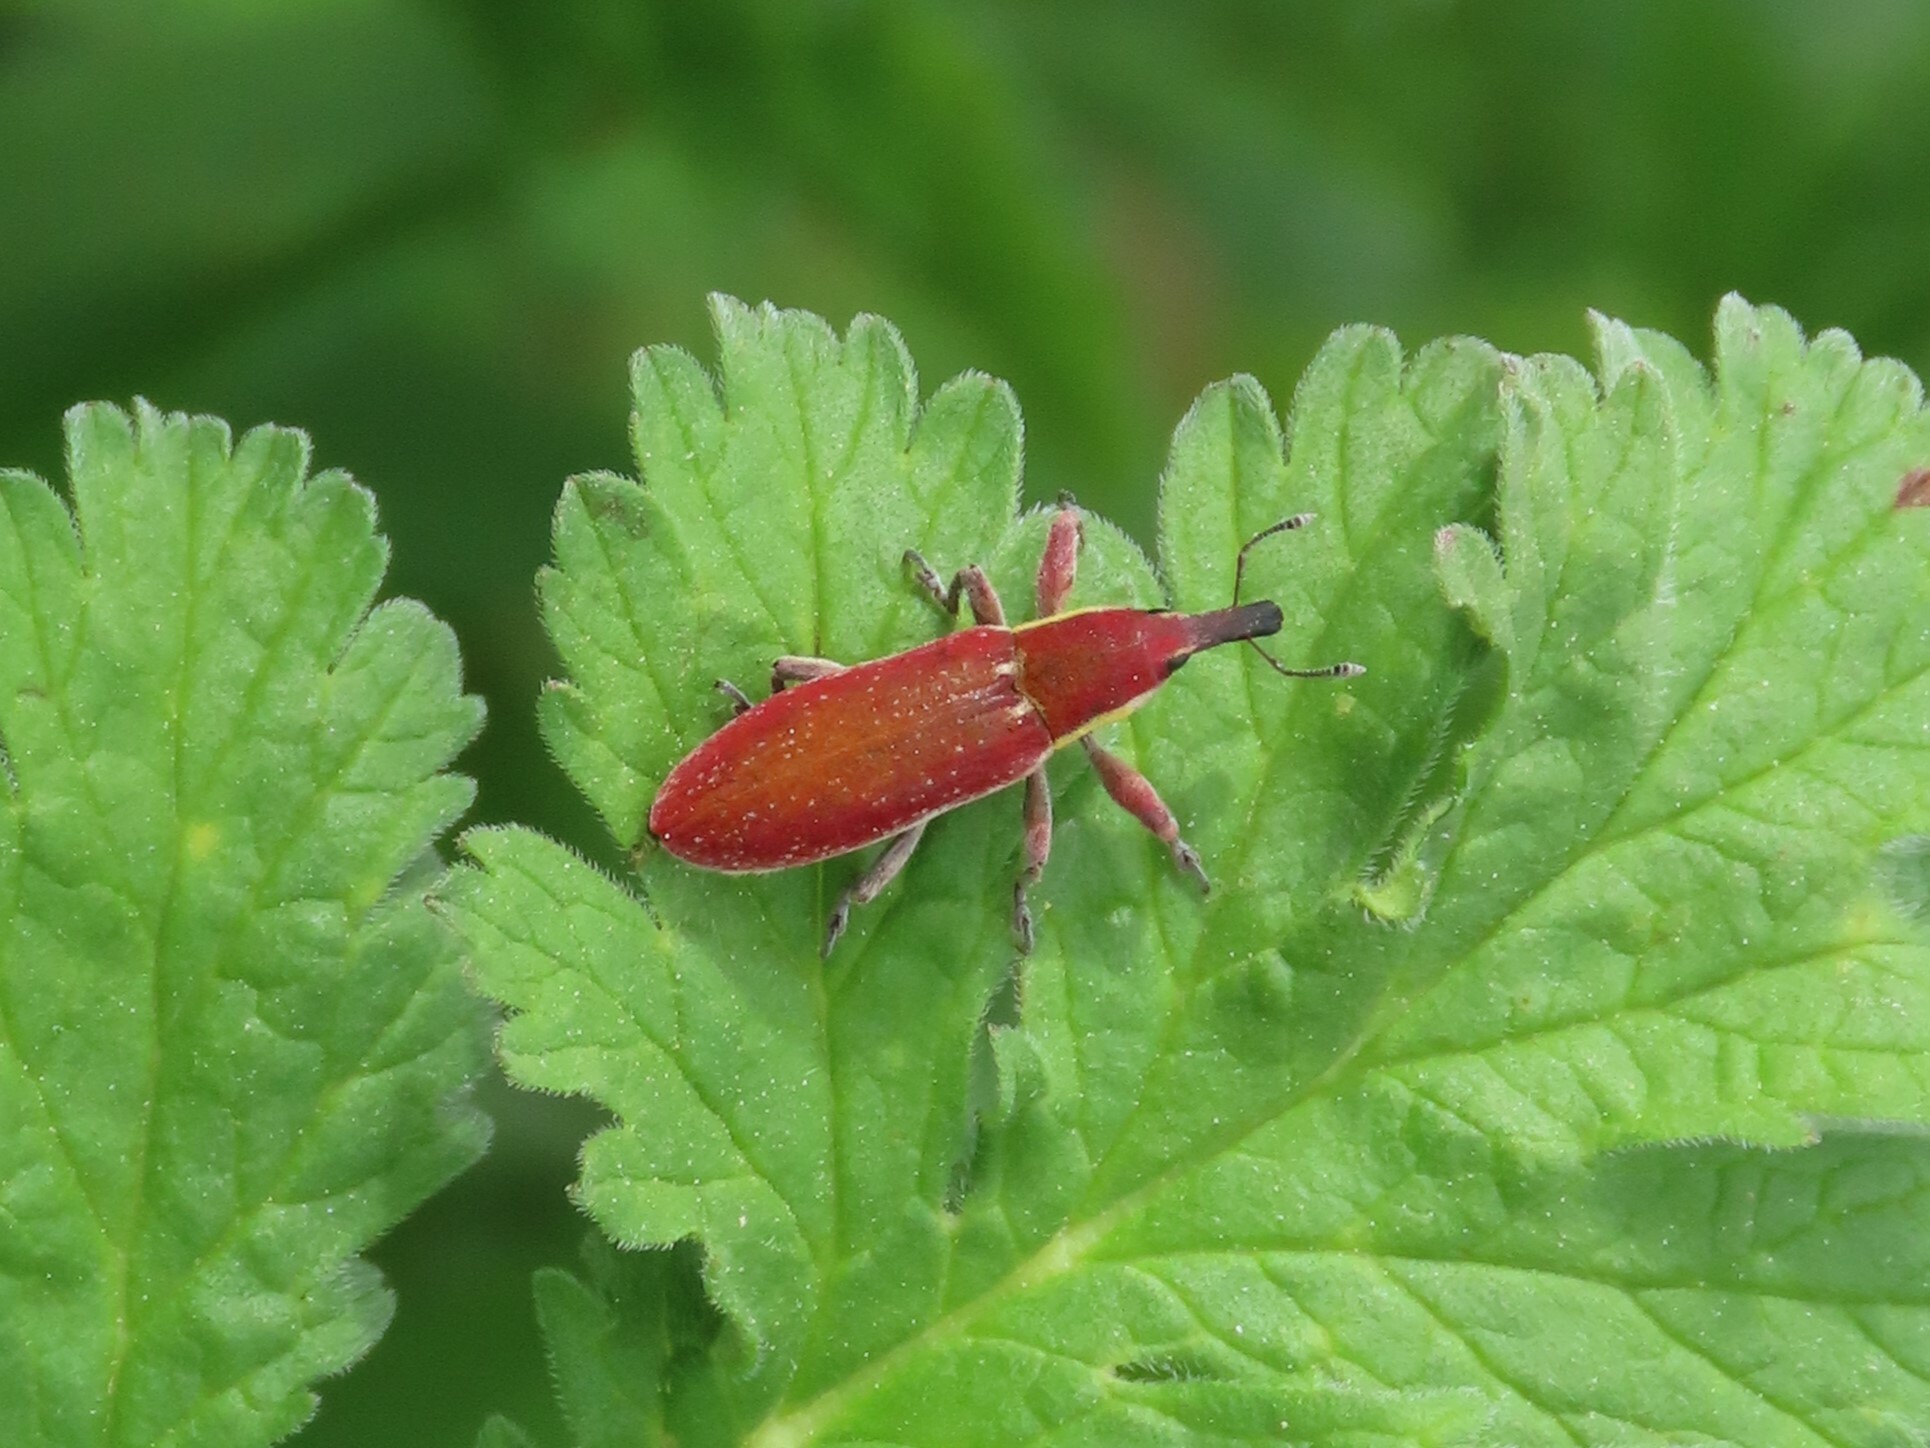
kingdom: Animalia
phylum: Arthropoda
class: Insecta
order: Coleoptera
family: Curculionidae
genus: Lixus
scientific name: Lixus vilis
